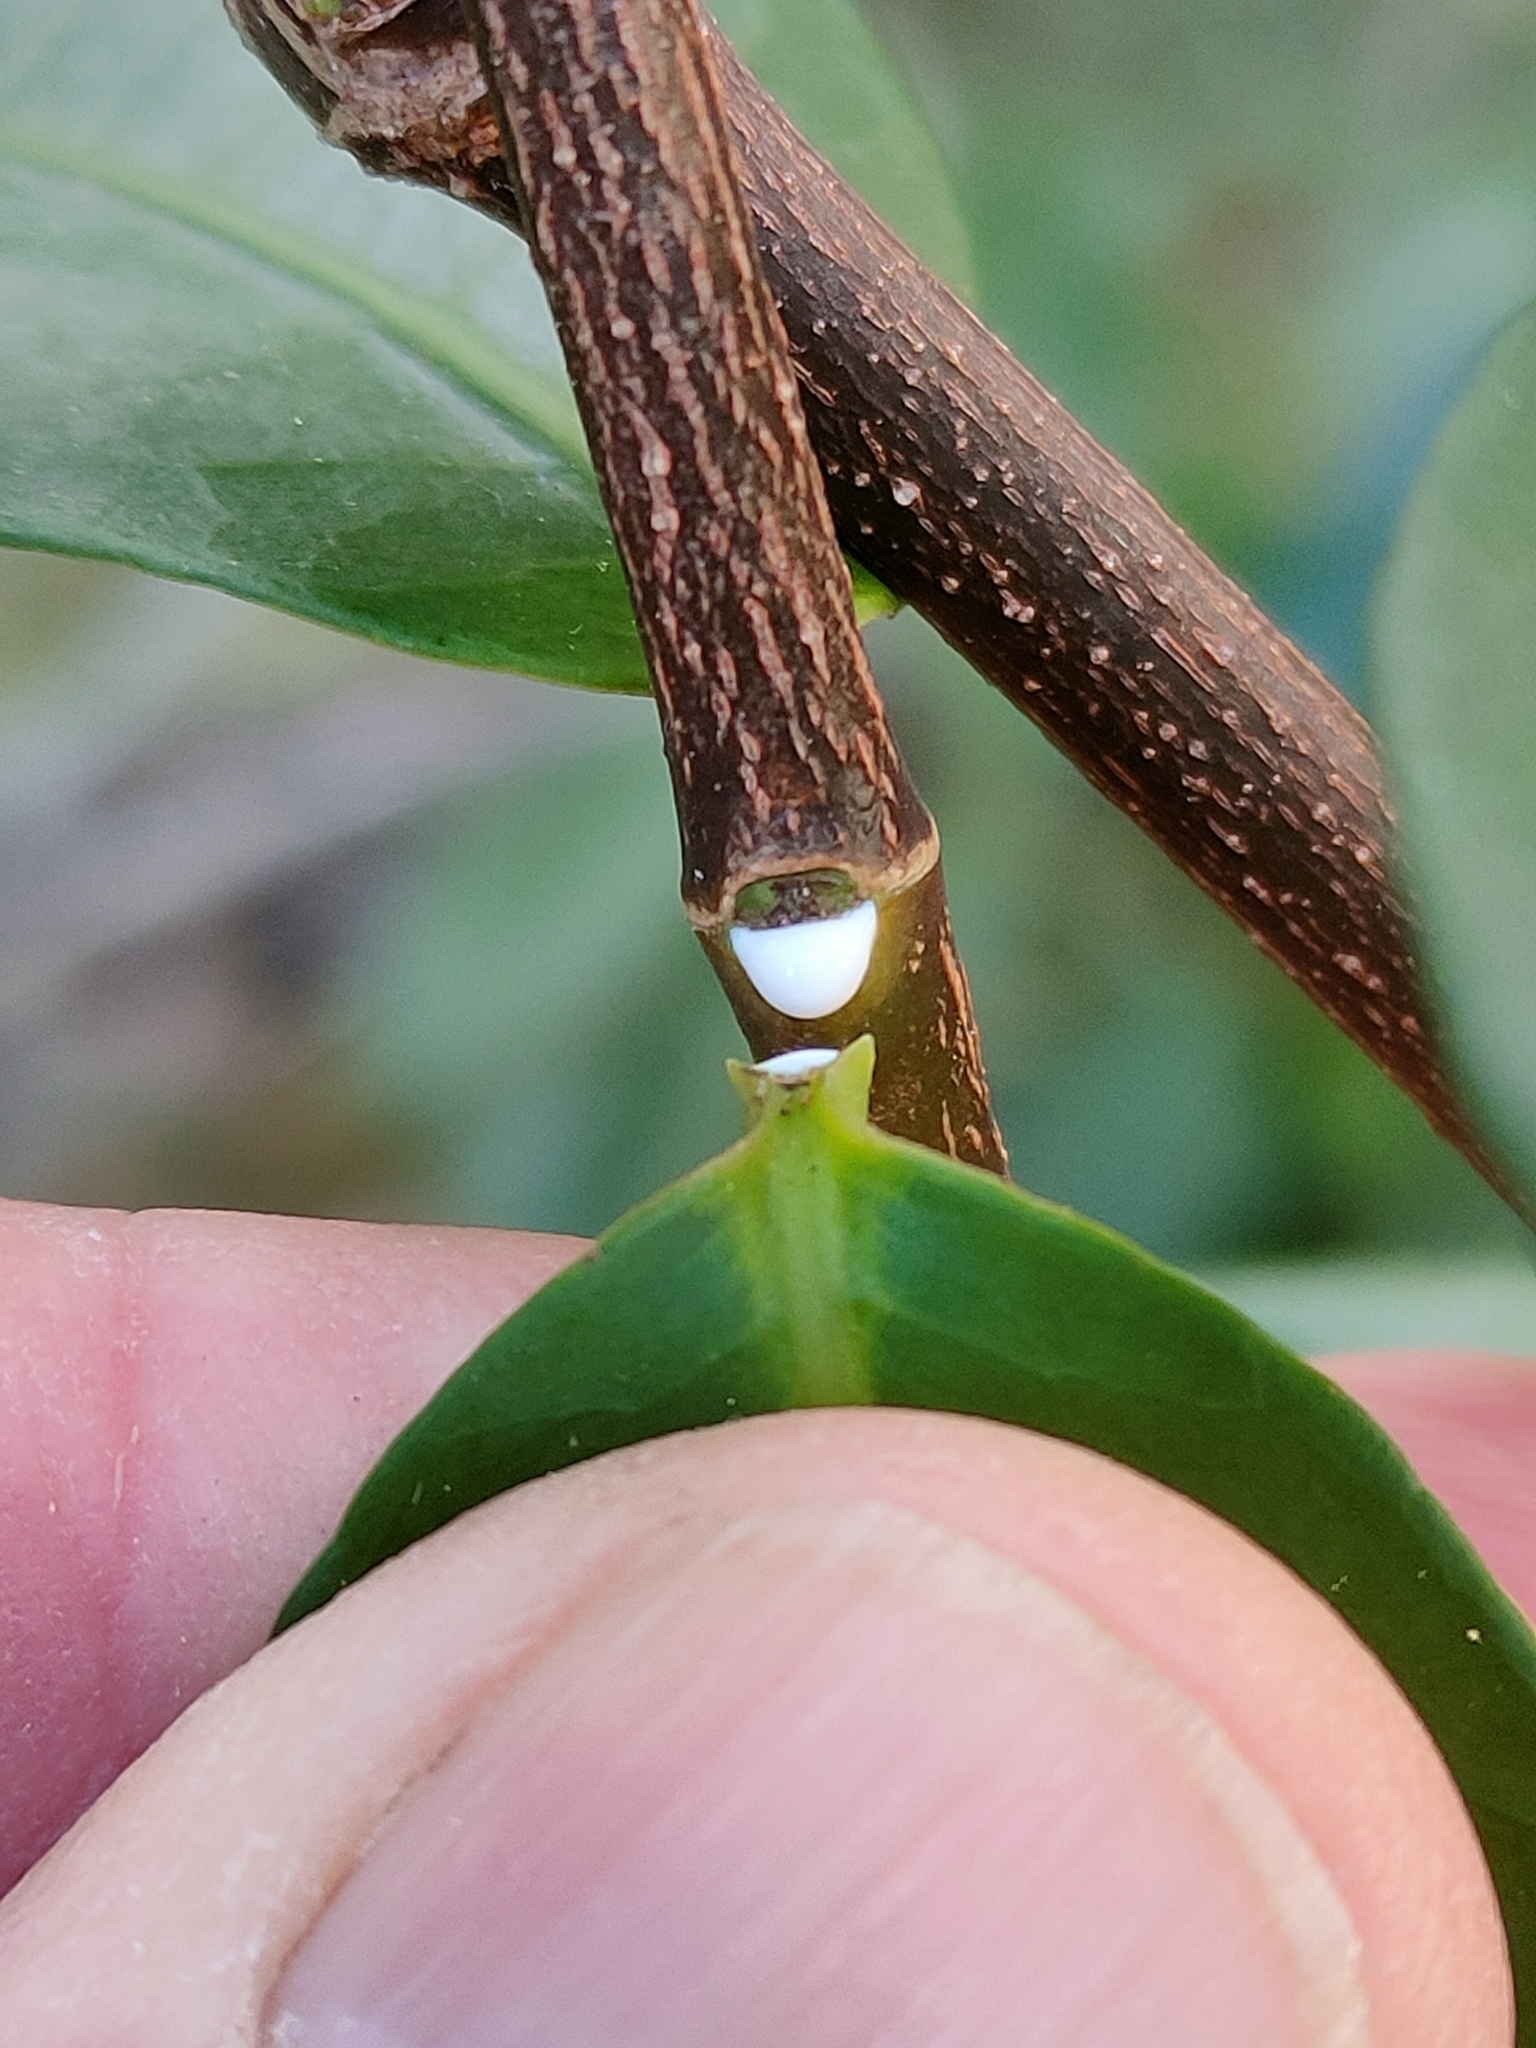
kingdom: Plantae
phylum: Tracheophyta
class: Magnoliopsida
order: Gentianales
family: Apocynaceae
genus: Melodinus
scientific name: Melodinus australis
